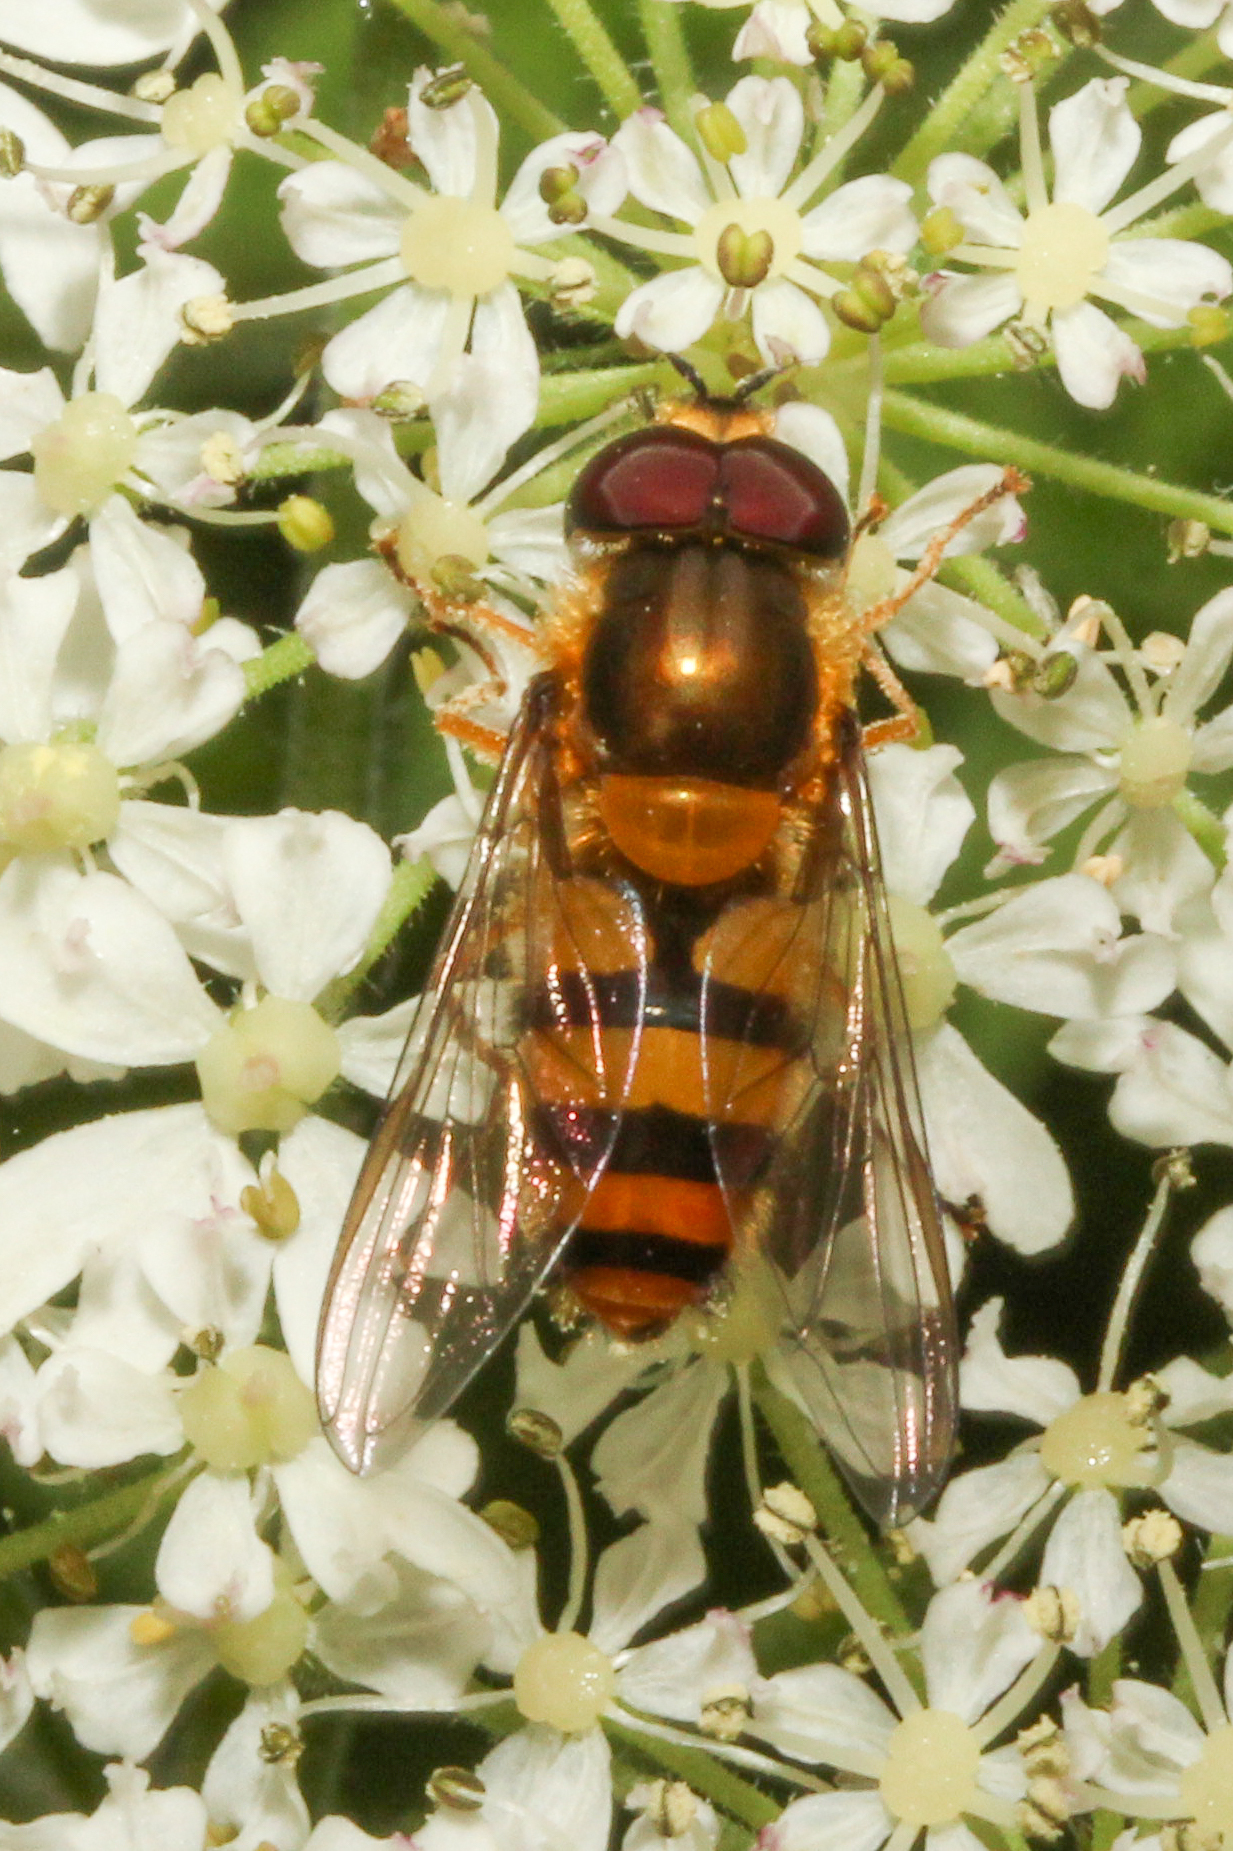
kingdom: Animalia
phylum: Arthropoda
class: Insecta
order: Diptera
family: Syrphidae
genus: Epistrophe
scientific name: Epistrophe grossulariae
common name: Black-horned smoothtail
